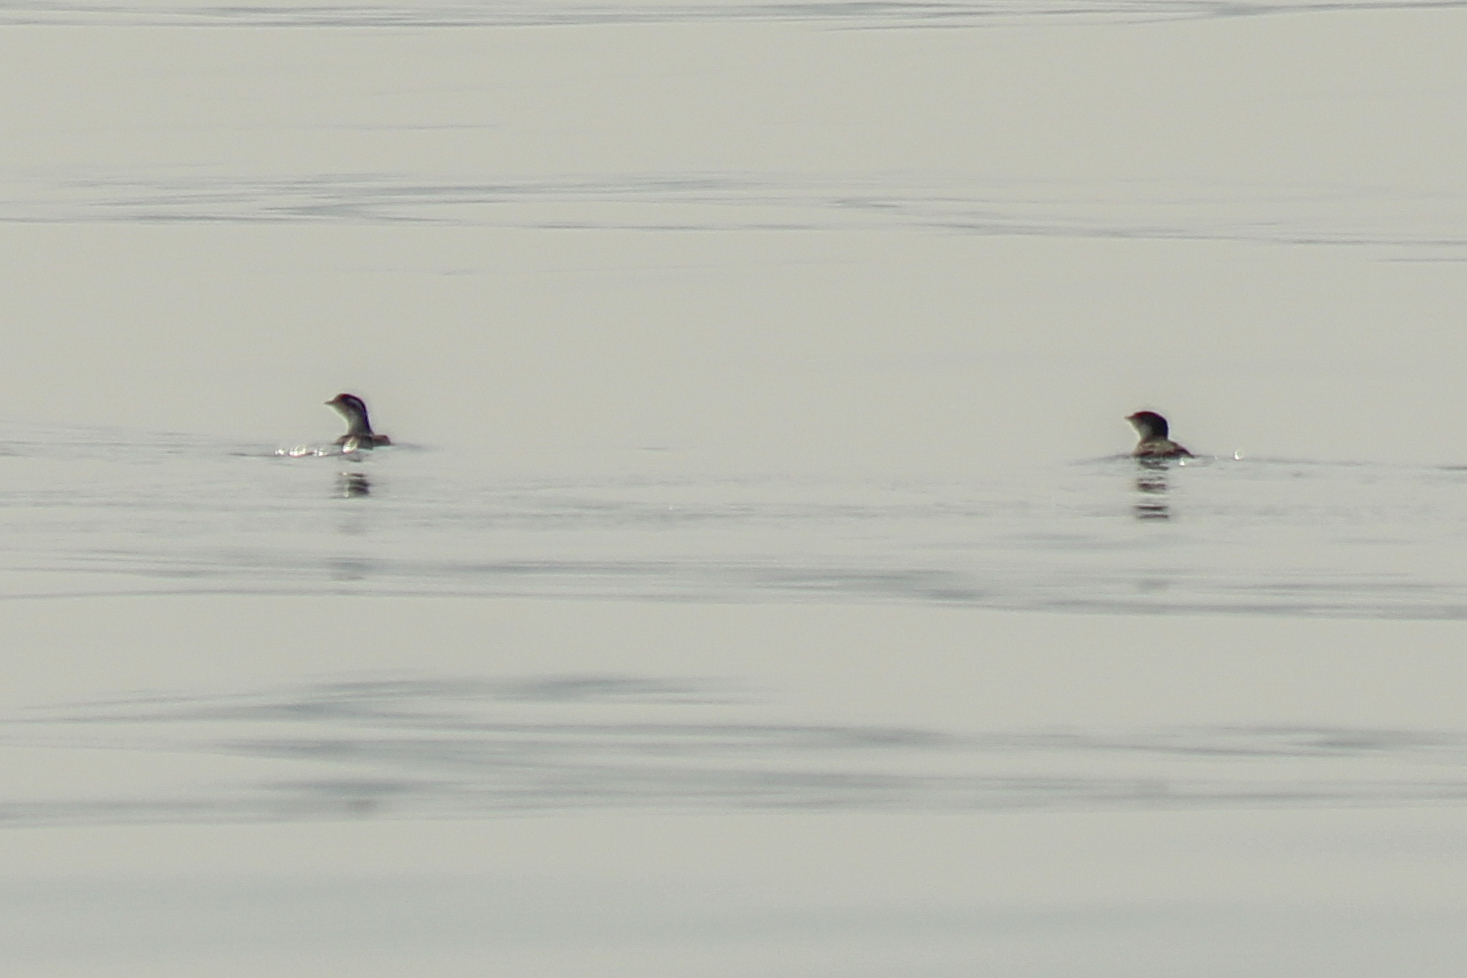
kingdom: Animalia
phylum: Chordata
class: Aves
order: Charadriiformes
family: Alcidae
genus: Synthliboramphus
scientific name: Synthliboramphus antiquus
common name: Ancient murrelet
